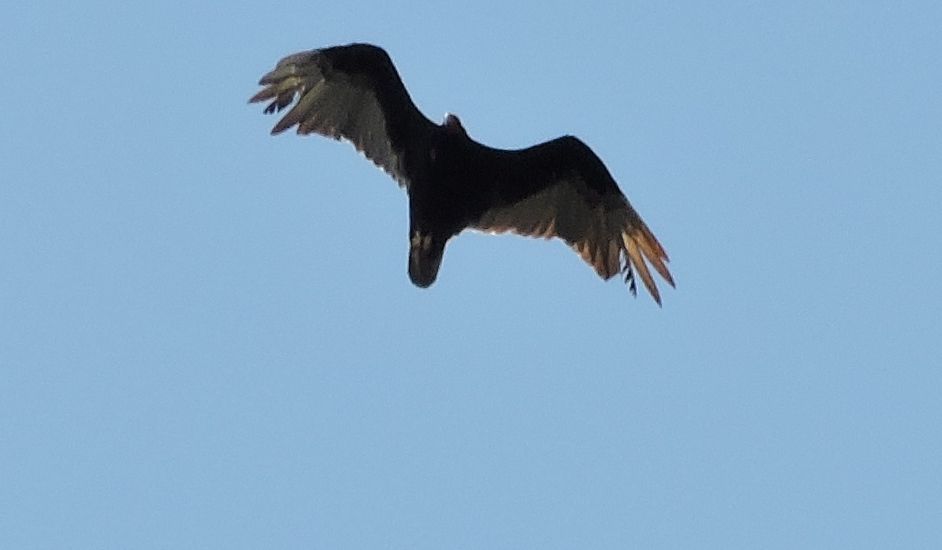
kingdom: Animalia
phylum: Chordata
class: Aves
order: Accipitriformes
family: Cathartidae
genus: Cathartes
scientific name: Cathartes aura
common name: Turkey vulture
